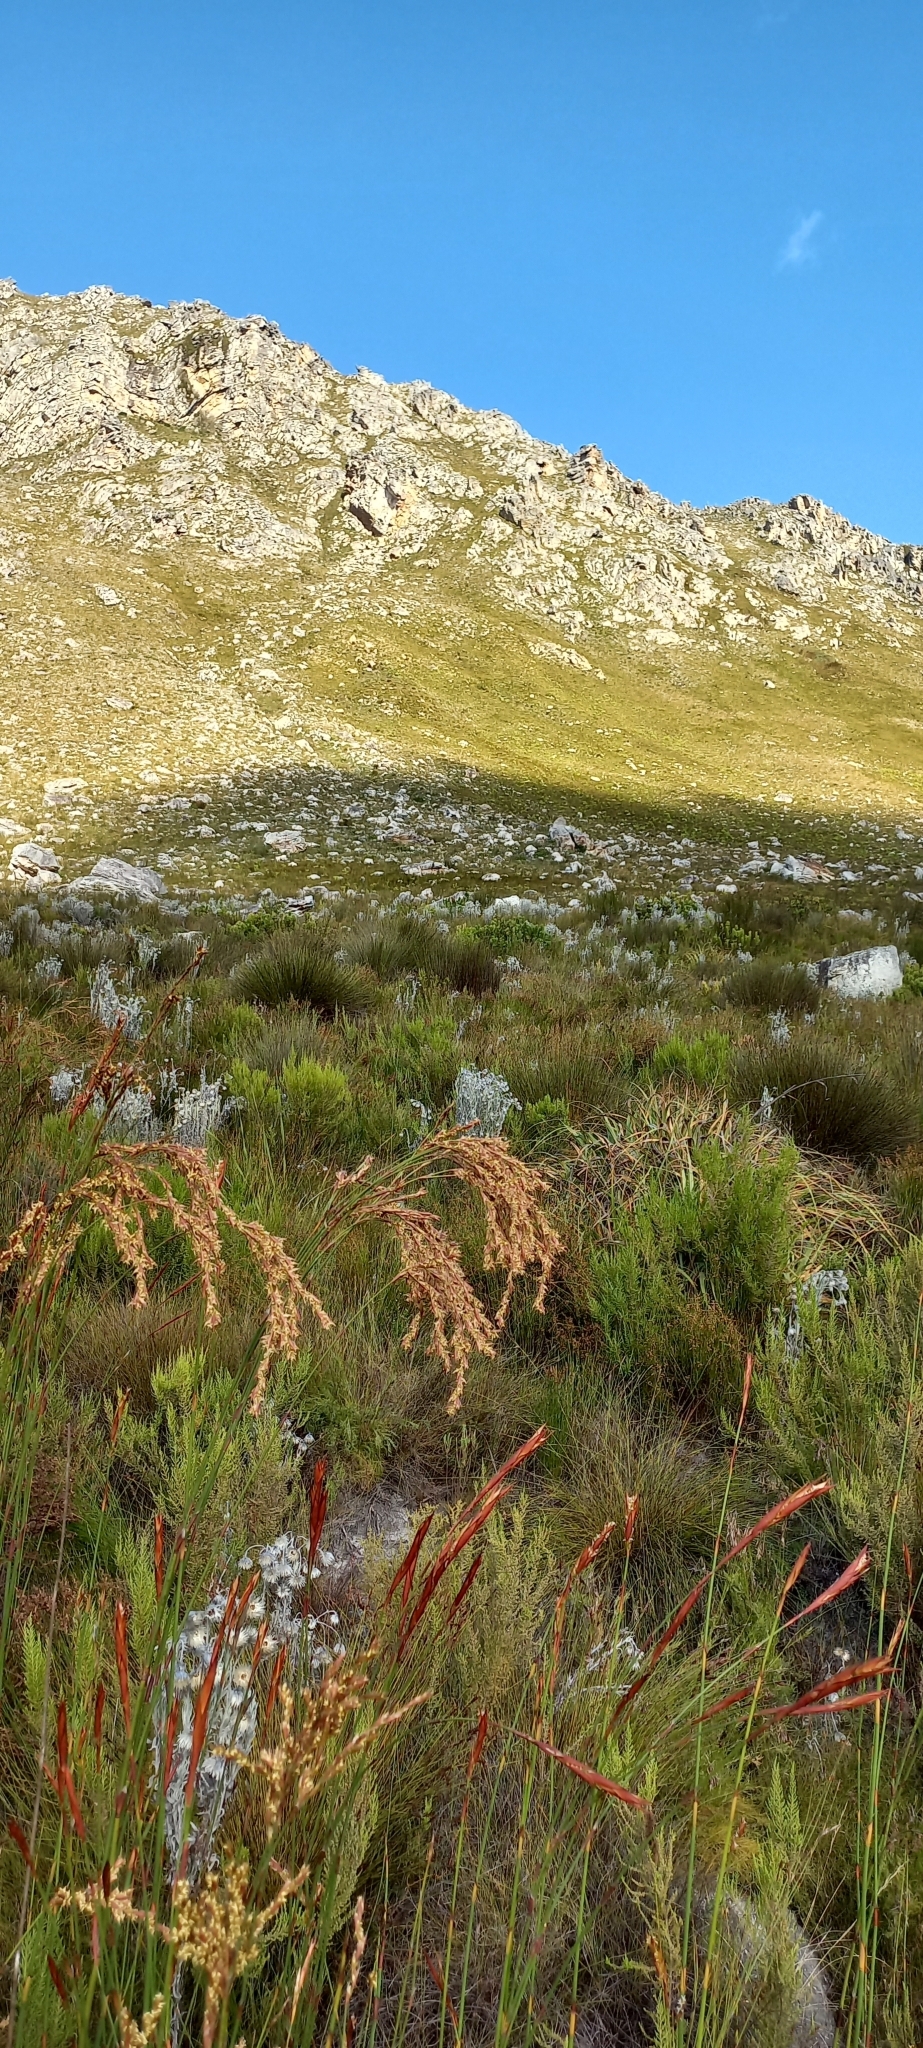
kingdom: Plantae
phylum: Tracheophyta
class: Liliopsida
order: Poales
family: Restionaceae
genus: Restio
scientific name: Restio dispar
